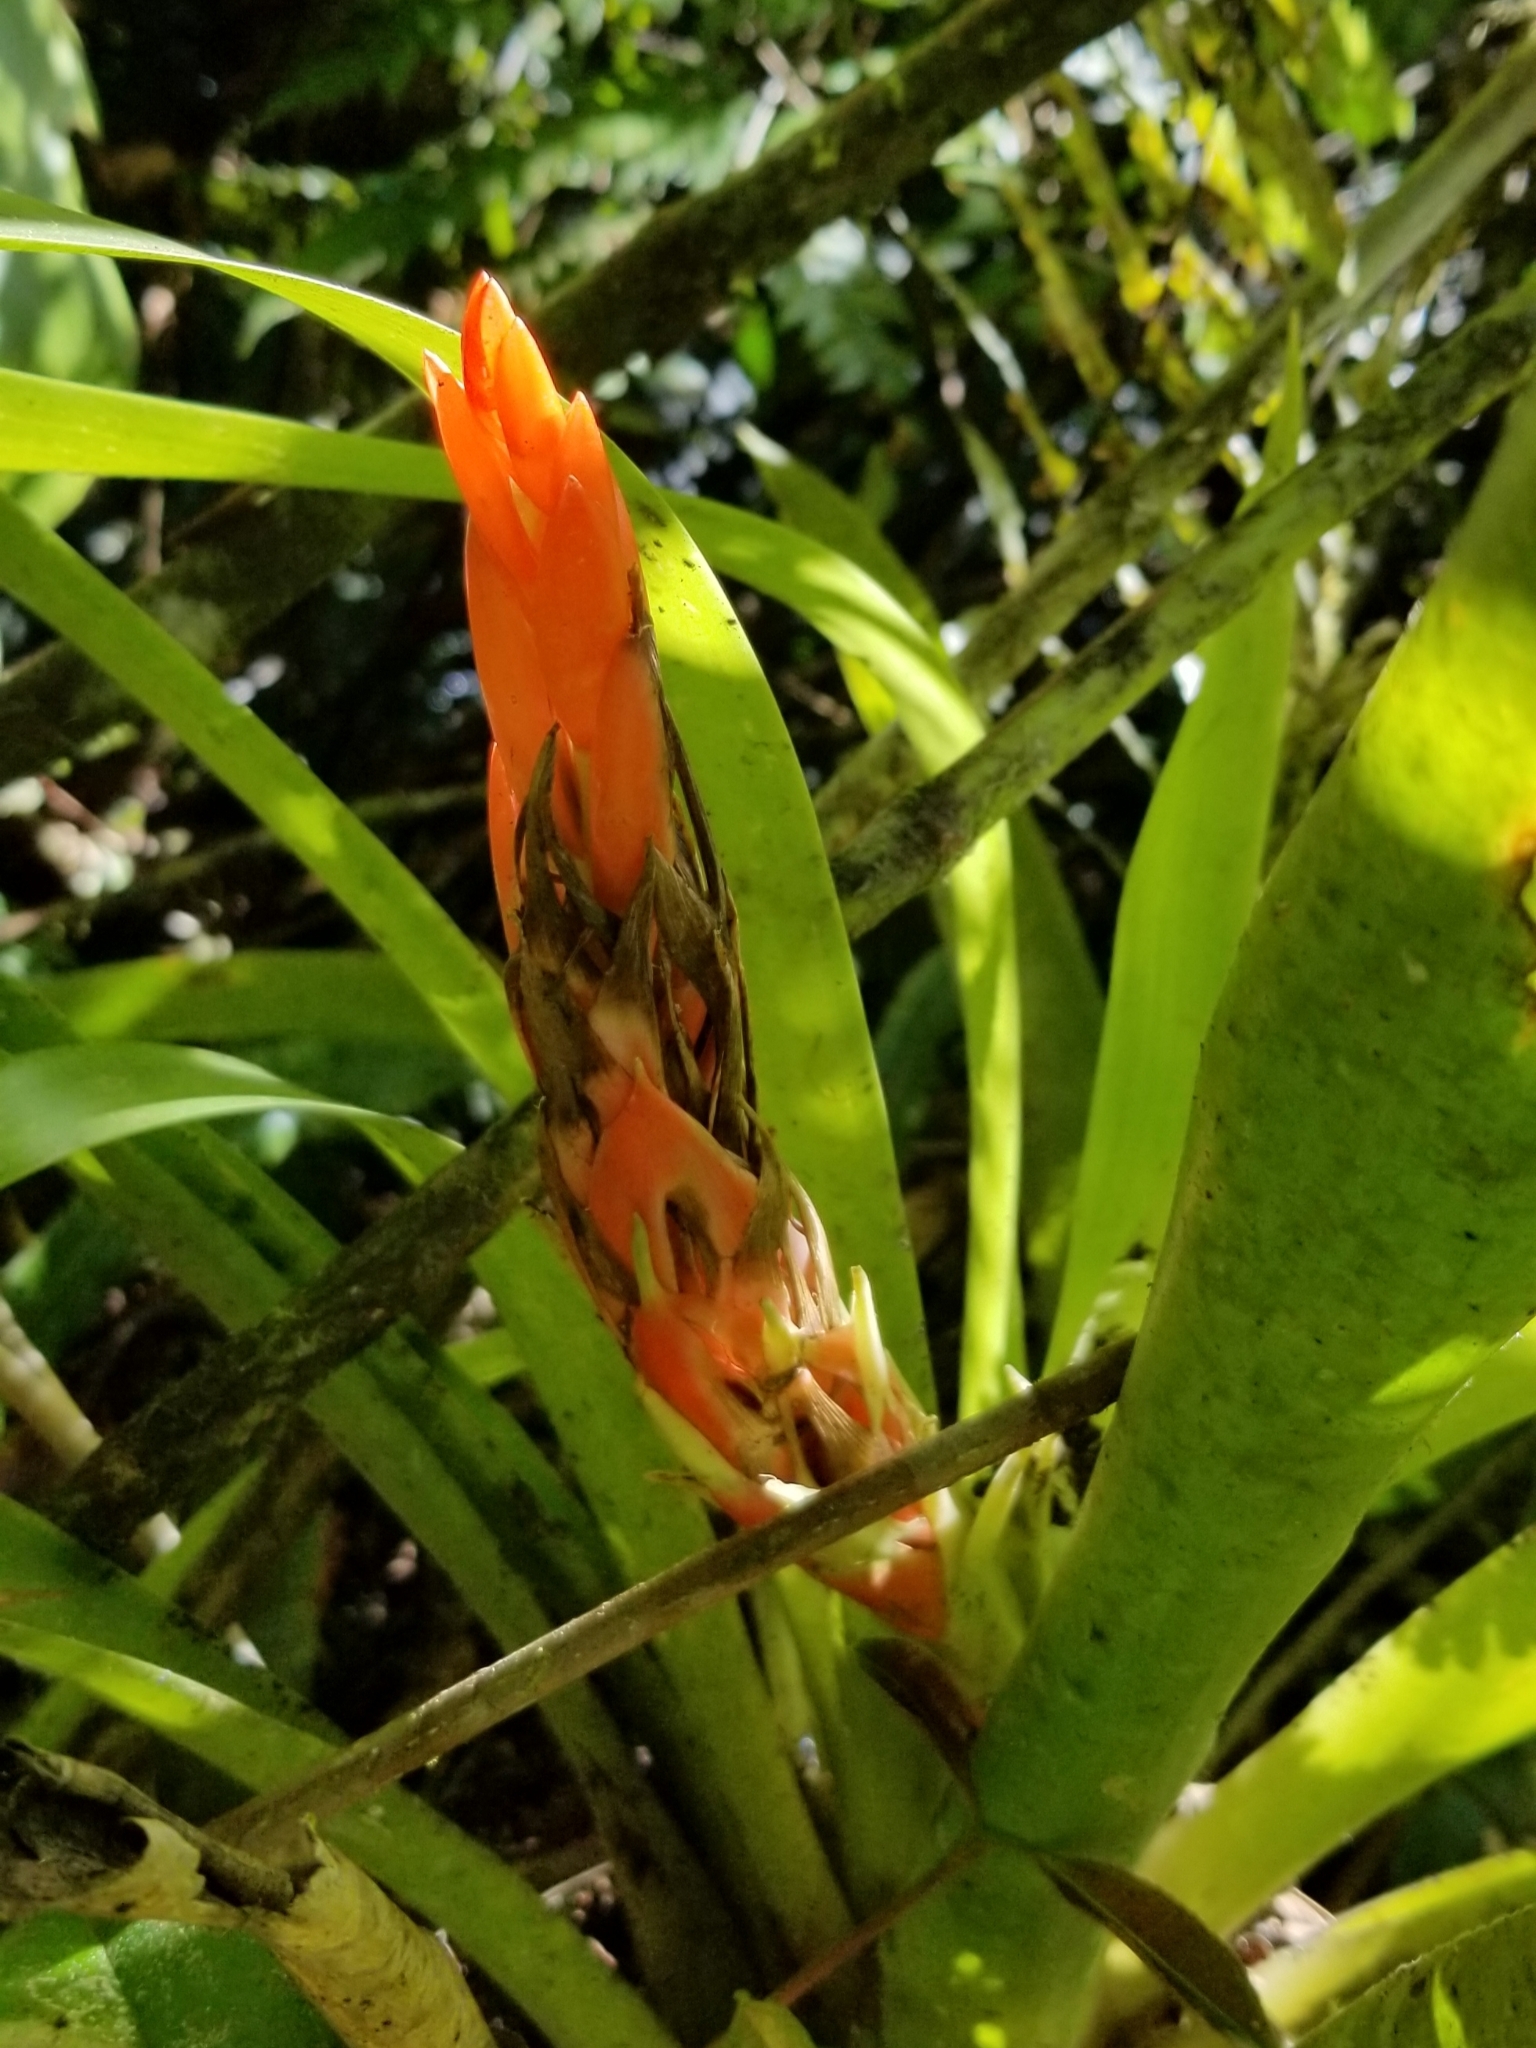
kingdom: Plantae
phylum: Tracheophyta
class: Liliopsida
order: Poales
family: Bromeliaceae
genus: Guzmania
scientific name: Guzmania berteroniana
